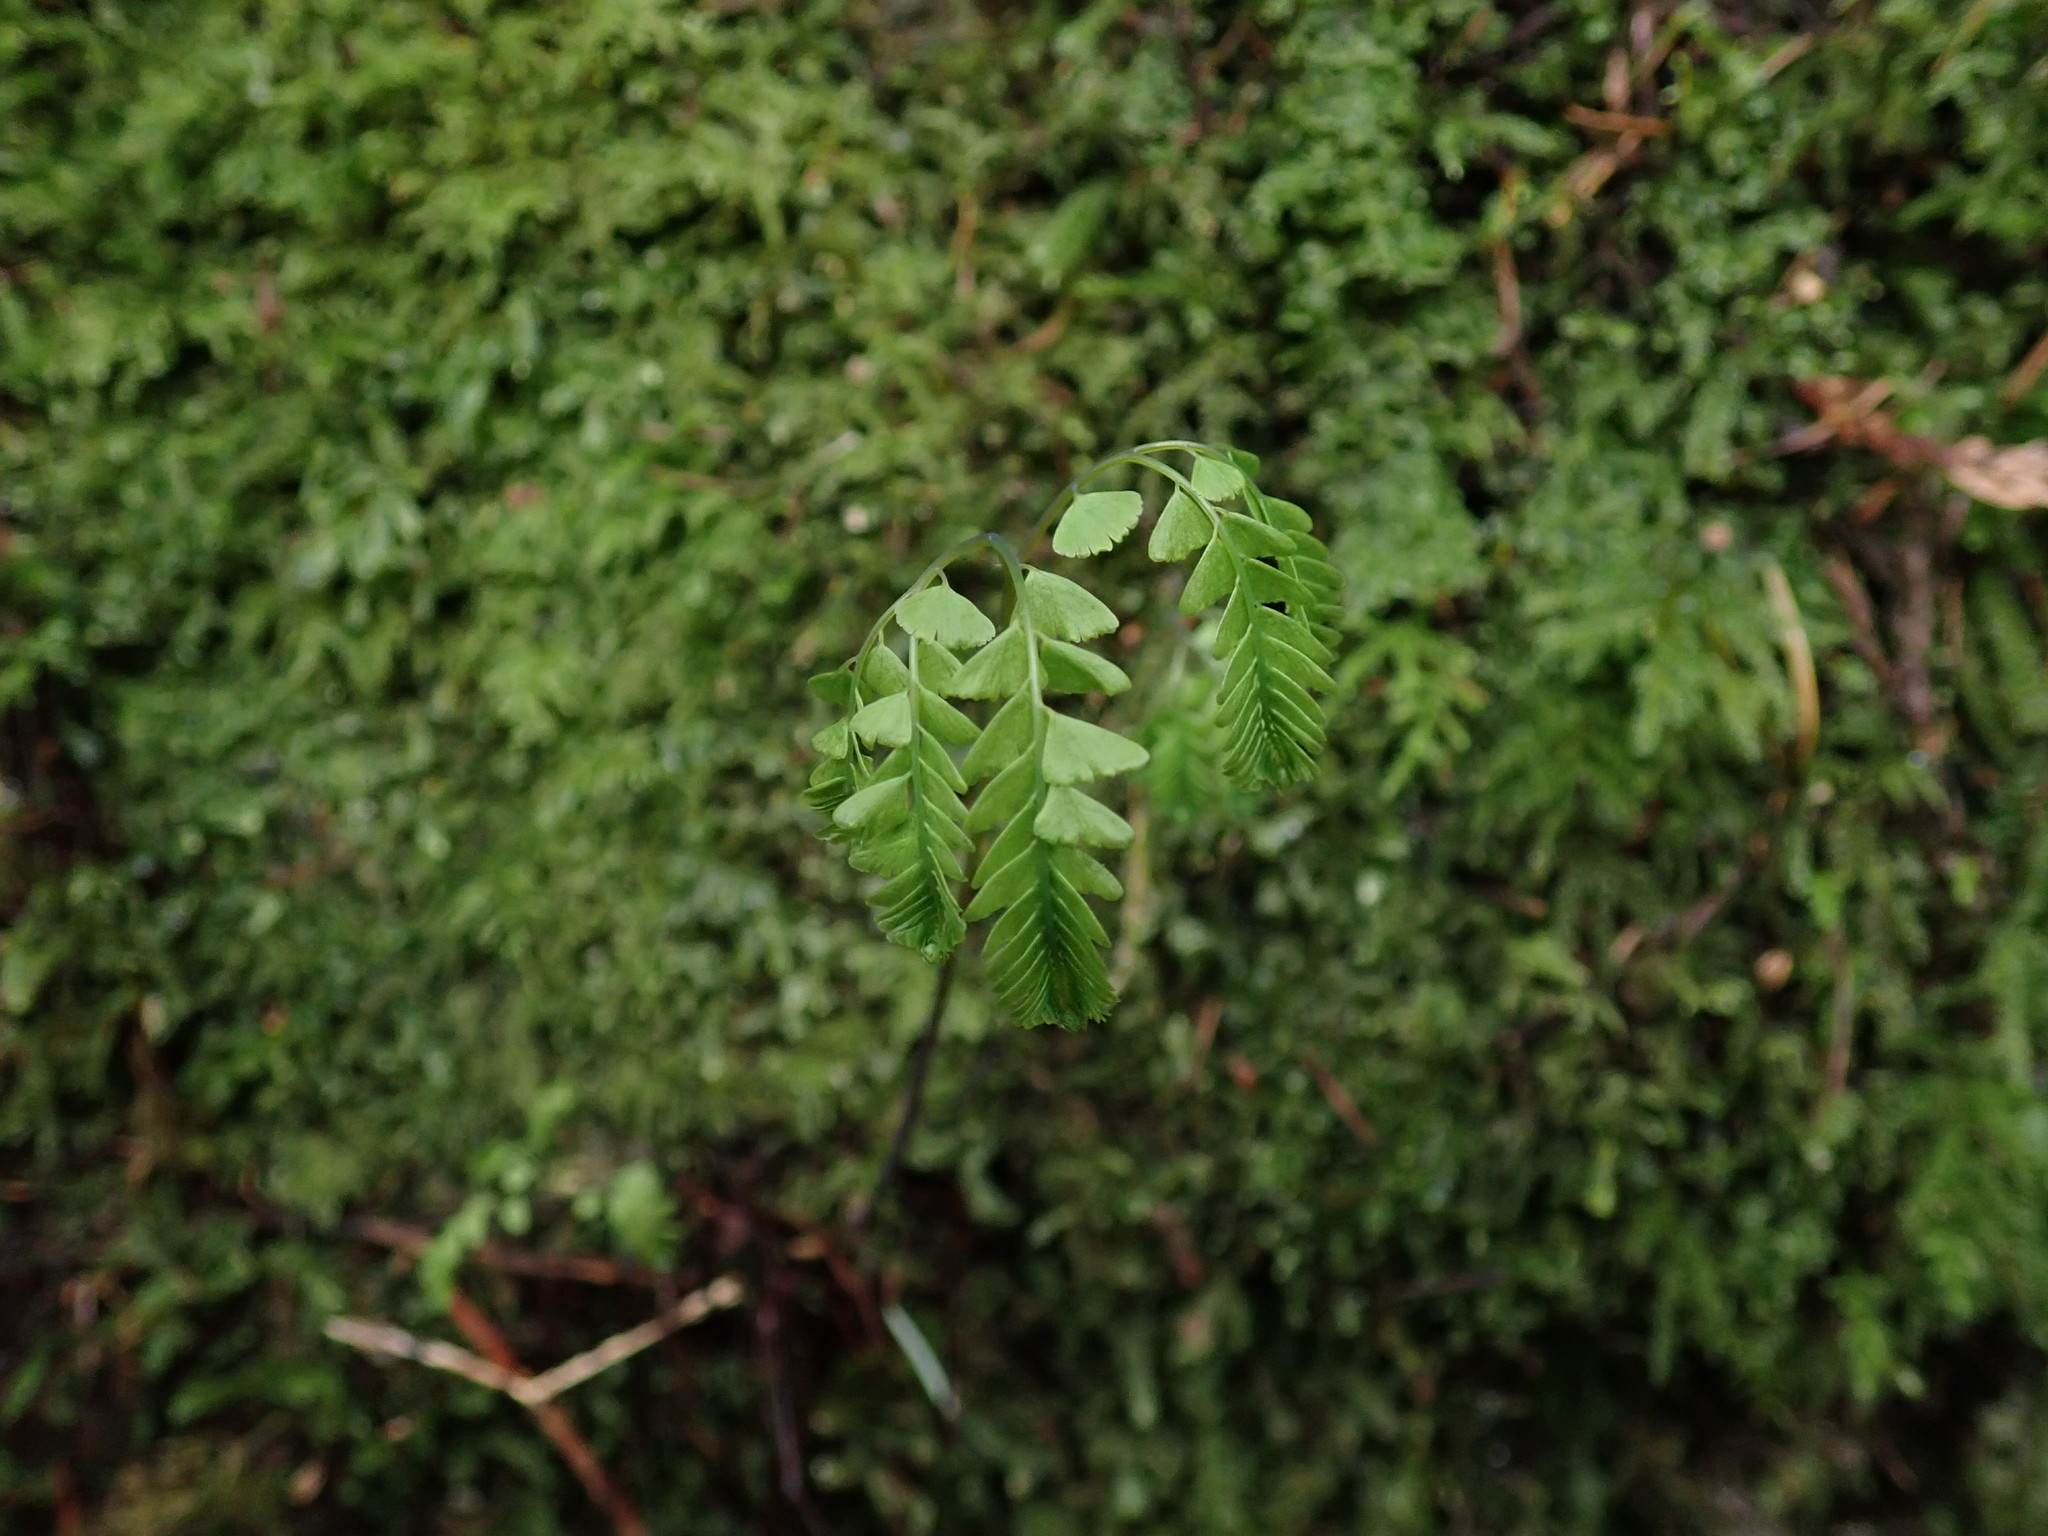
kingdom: Plantae
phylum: Tracheophyta
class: Polypodiopsida
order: Polypodiales
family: Pteridaceae
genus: Adiantum
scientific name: Adiantum aleuticum
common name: Aleutian maidenhair fern
